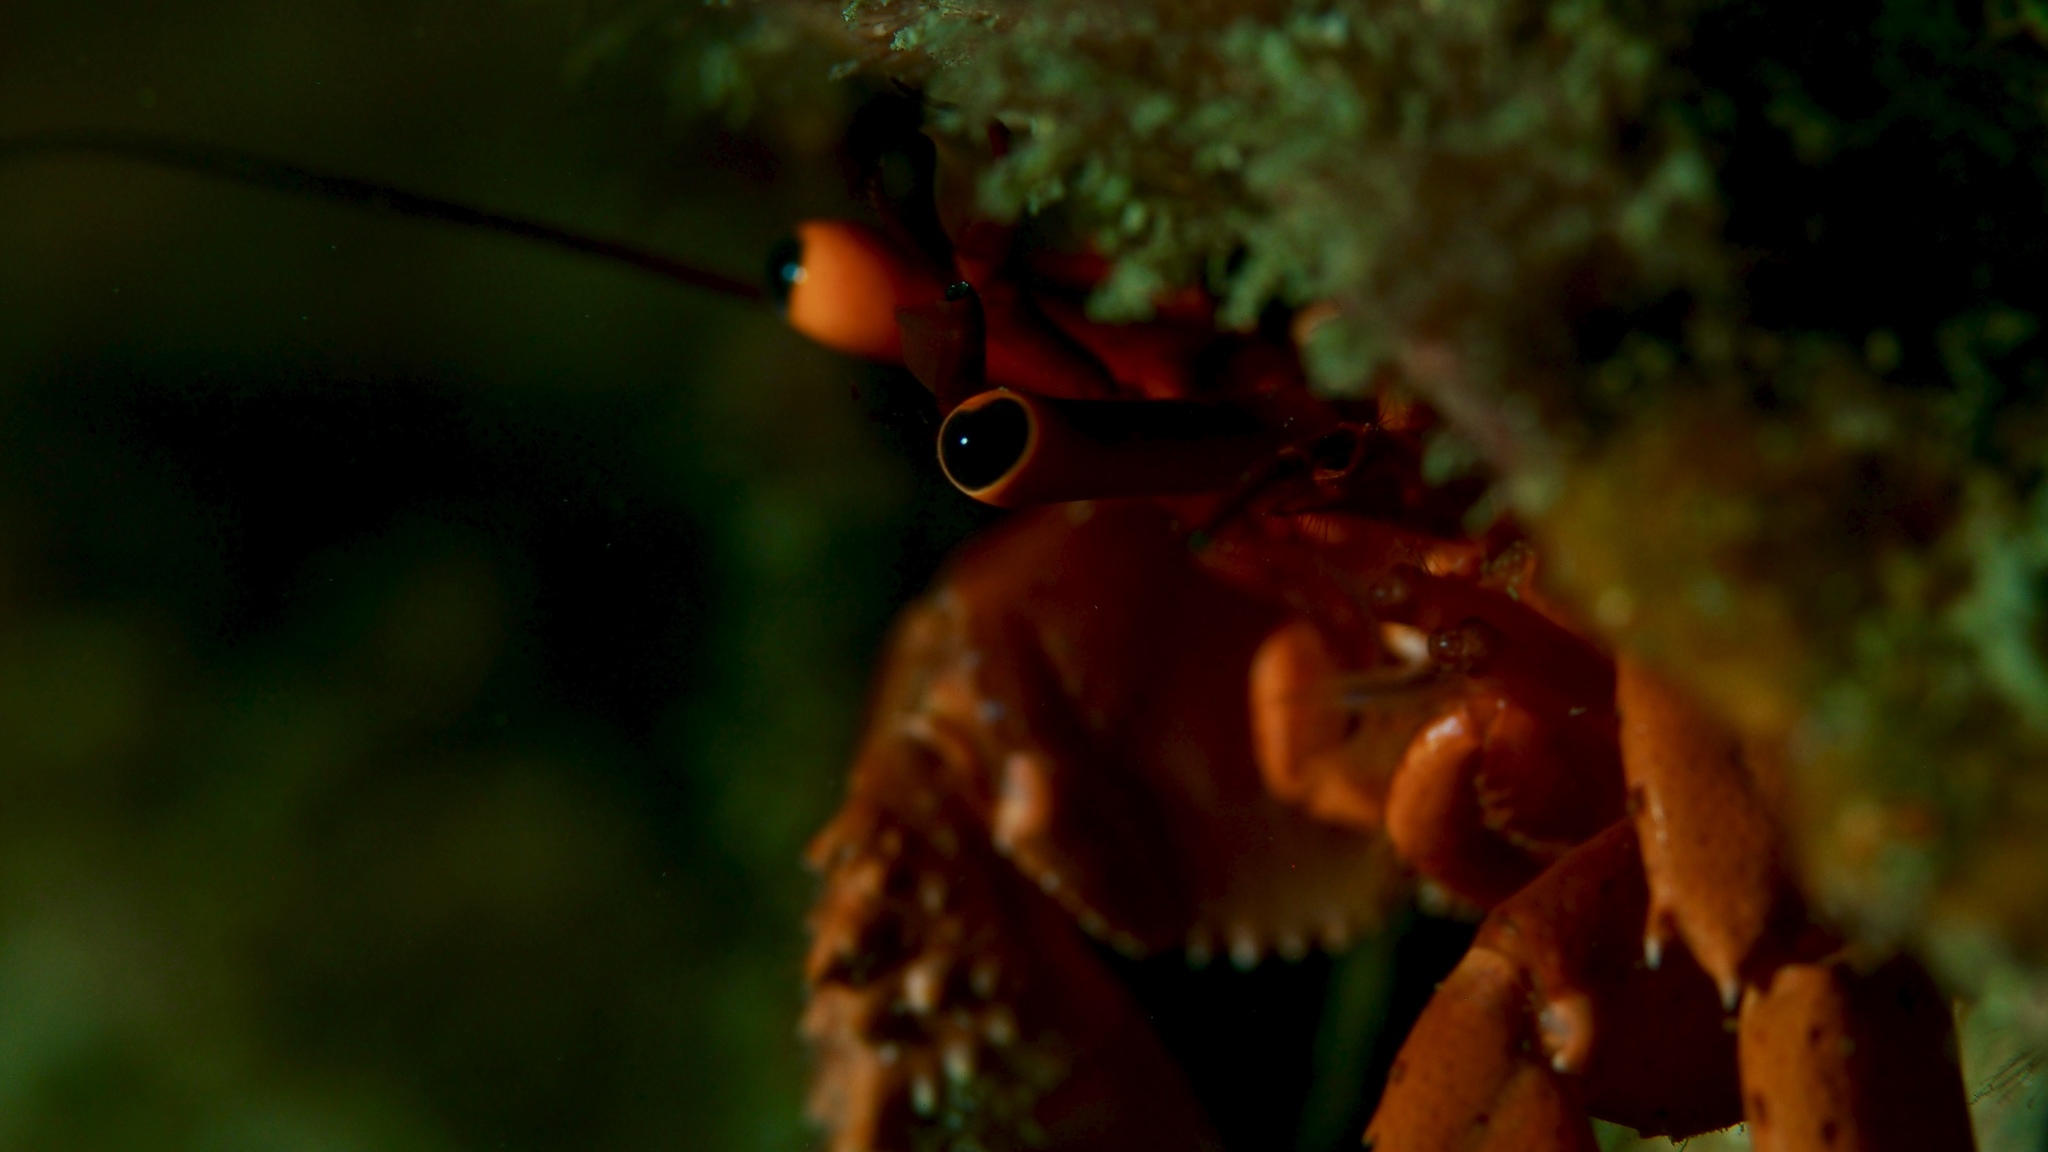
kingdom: Animalia
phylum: Arthropoda
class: Malacostraca
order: Decapoda
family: Diogenidae
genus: Paguristes
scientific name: Paguristes frontalis
